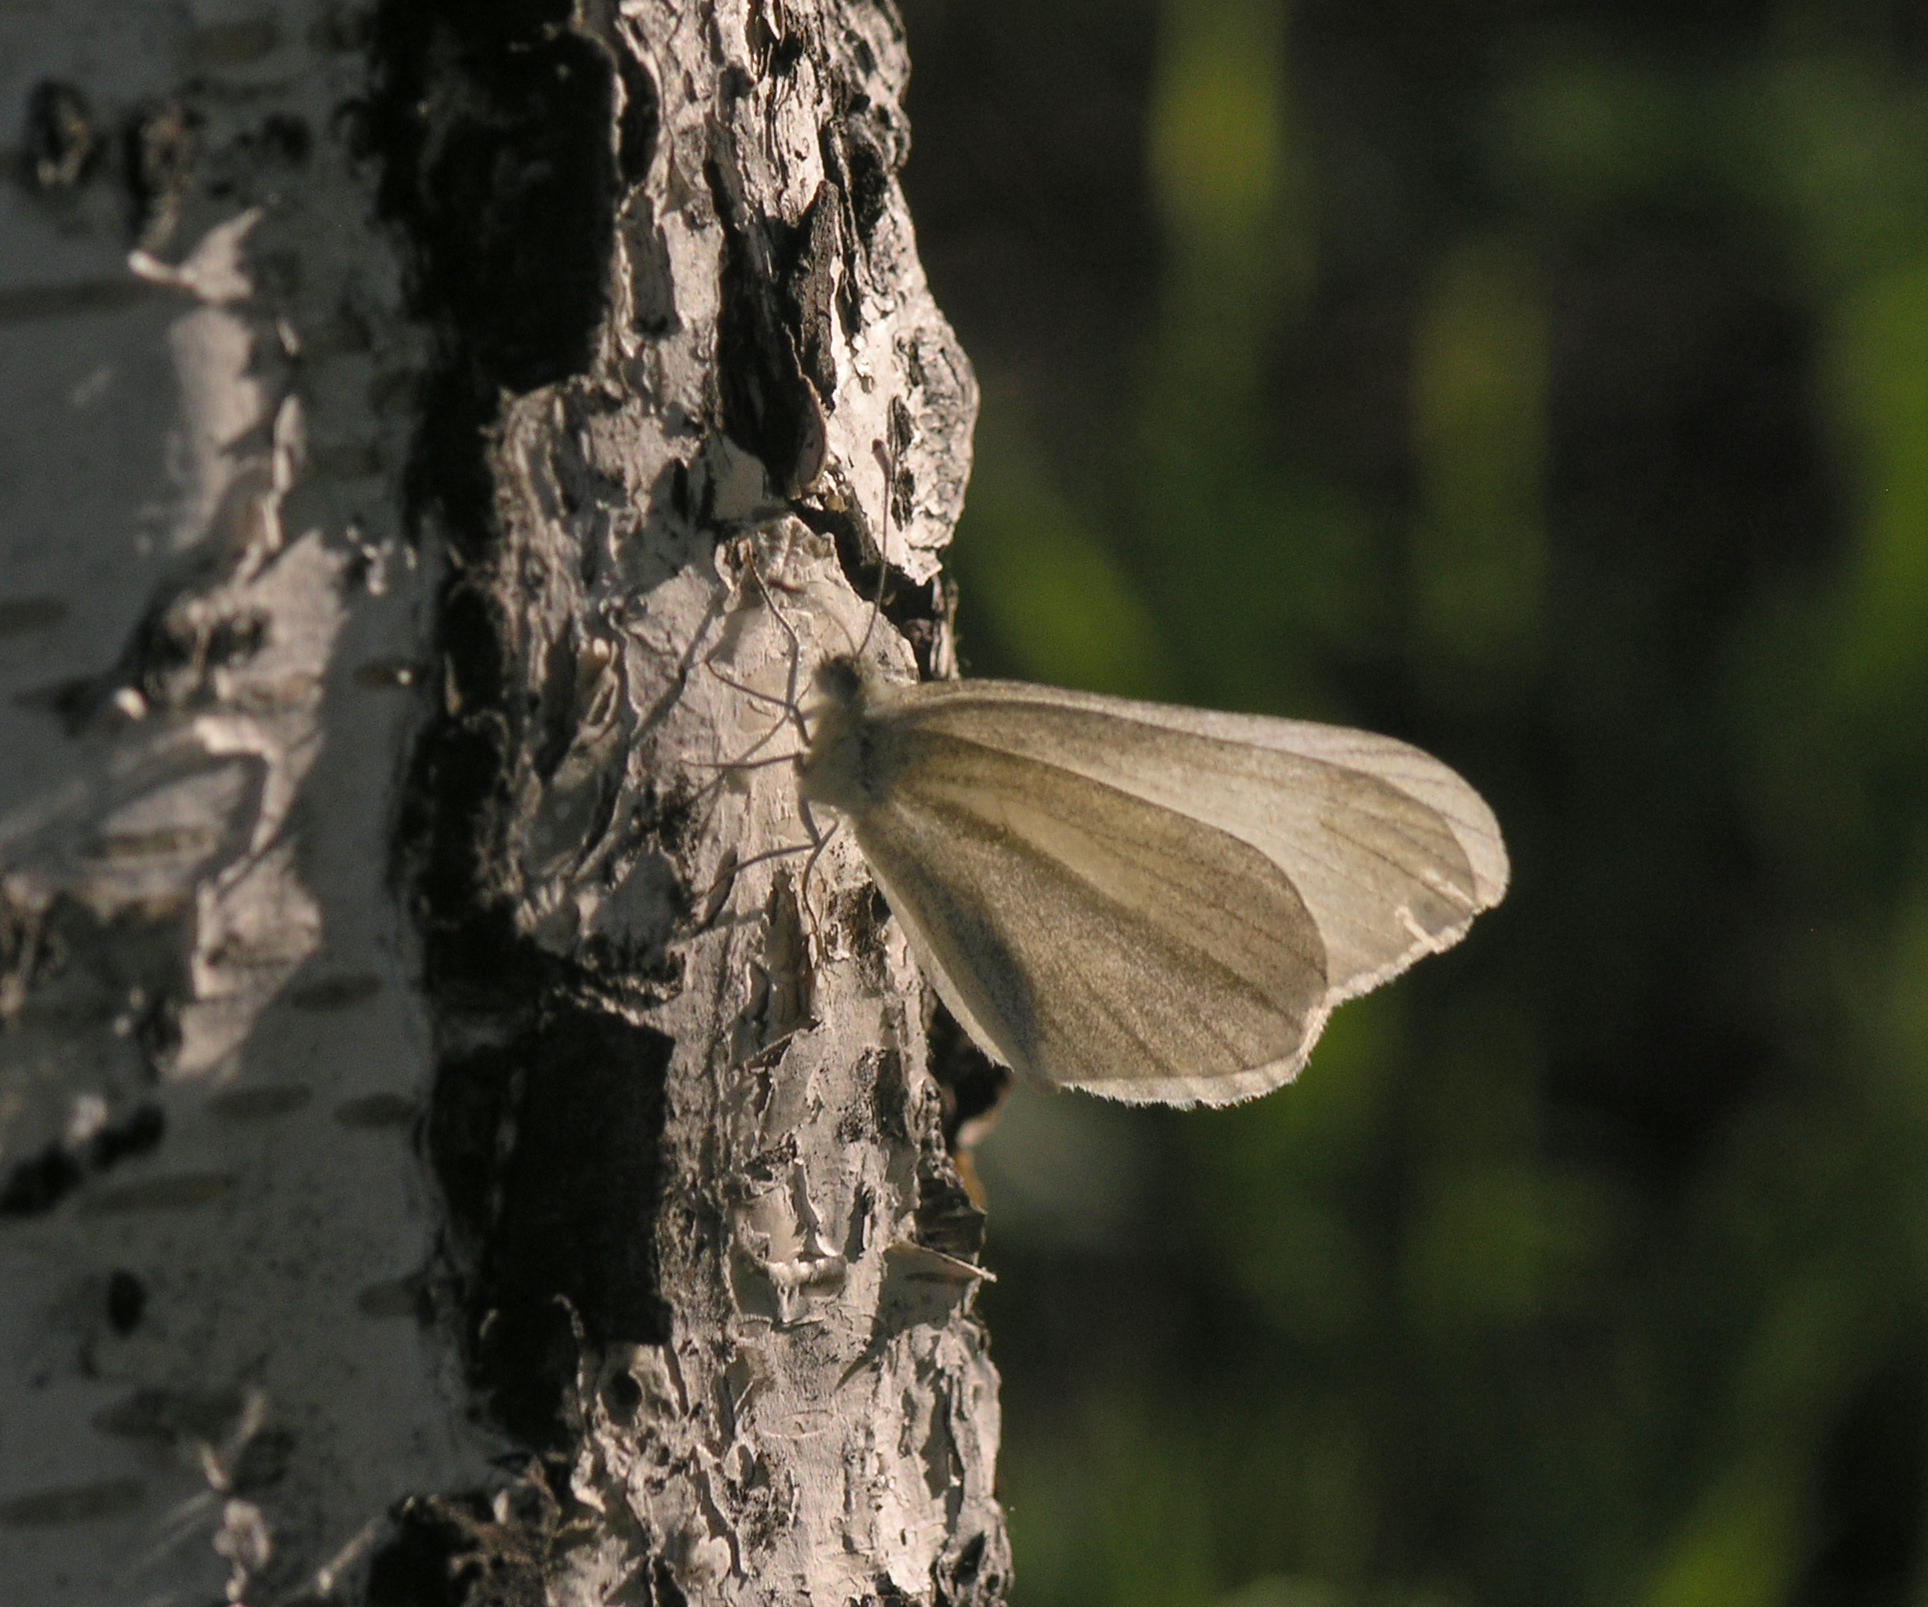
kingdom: Animalia
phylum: Arthropoda
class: Insecta
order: Lepidoptera
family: Pieridae
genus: Leptidea
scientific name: Leptidea amurensis
